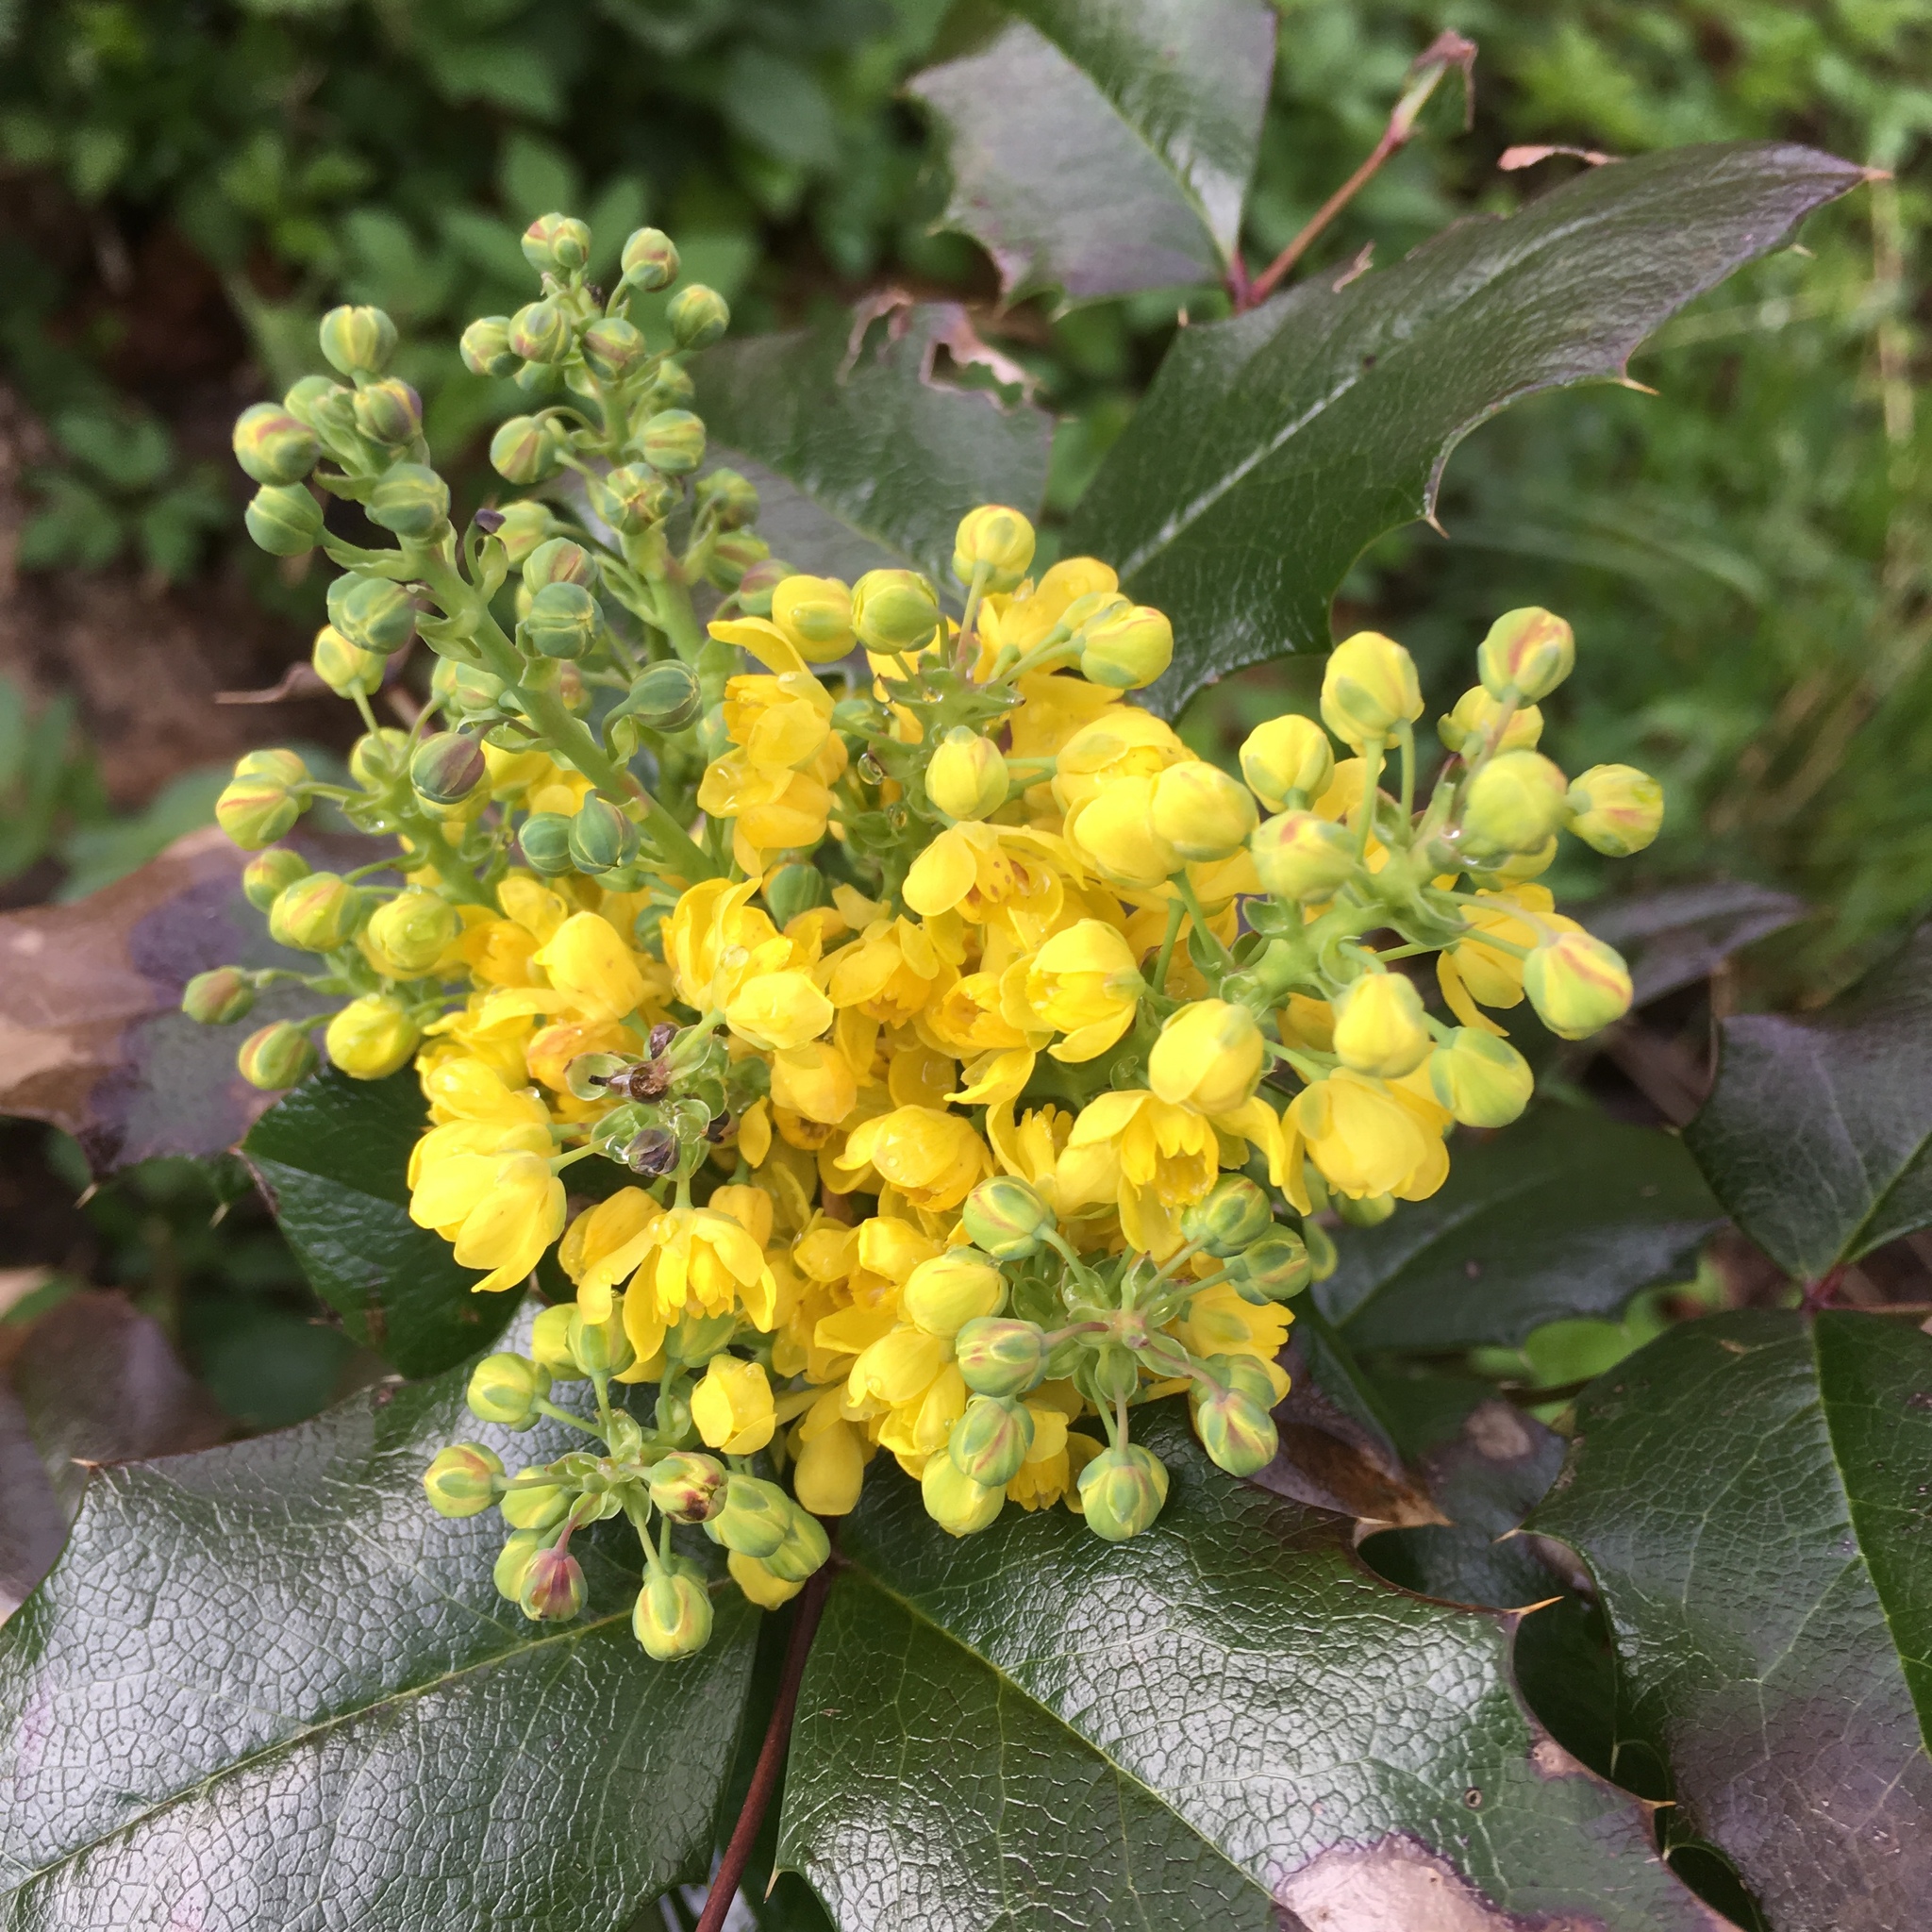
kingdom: Plantae
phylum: Tracheophyta
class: Magnoliopsida
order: Ranunculales
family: Berberidaceae
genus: Mahonia
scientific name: Mahonia aquifolium
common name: Oregon-grape
